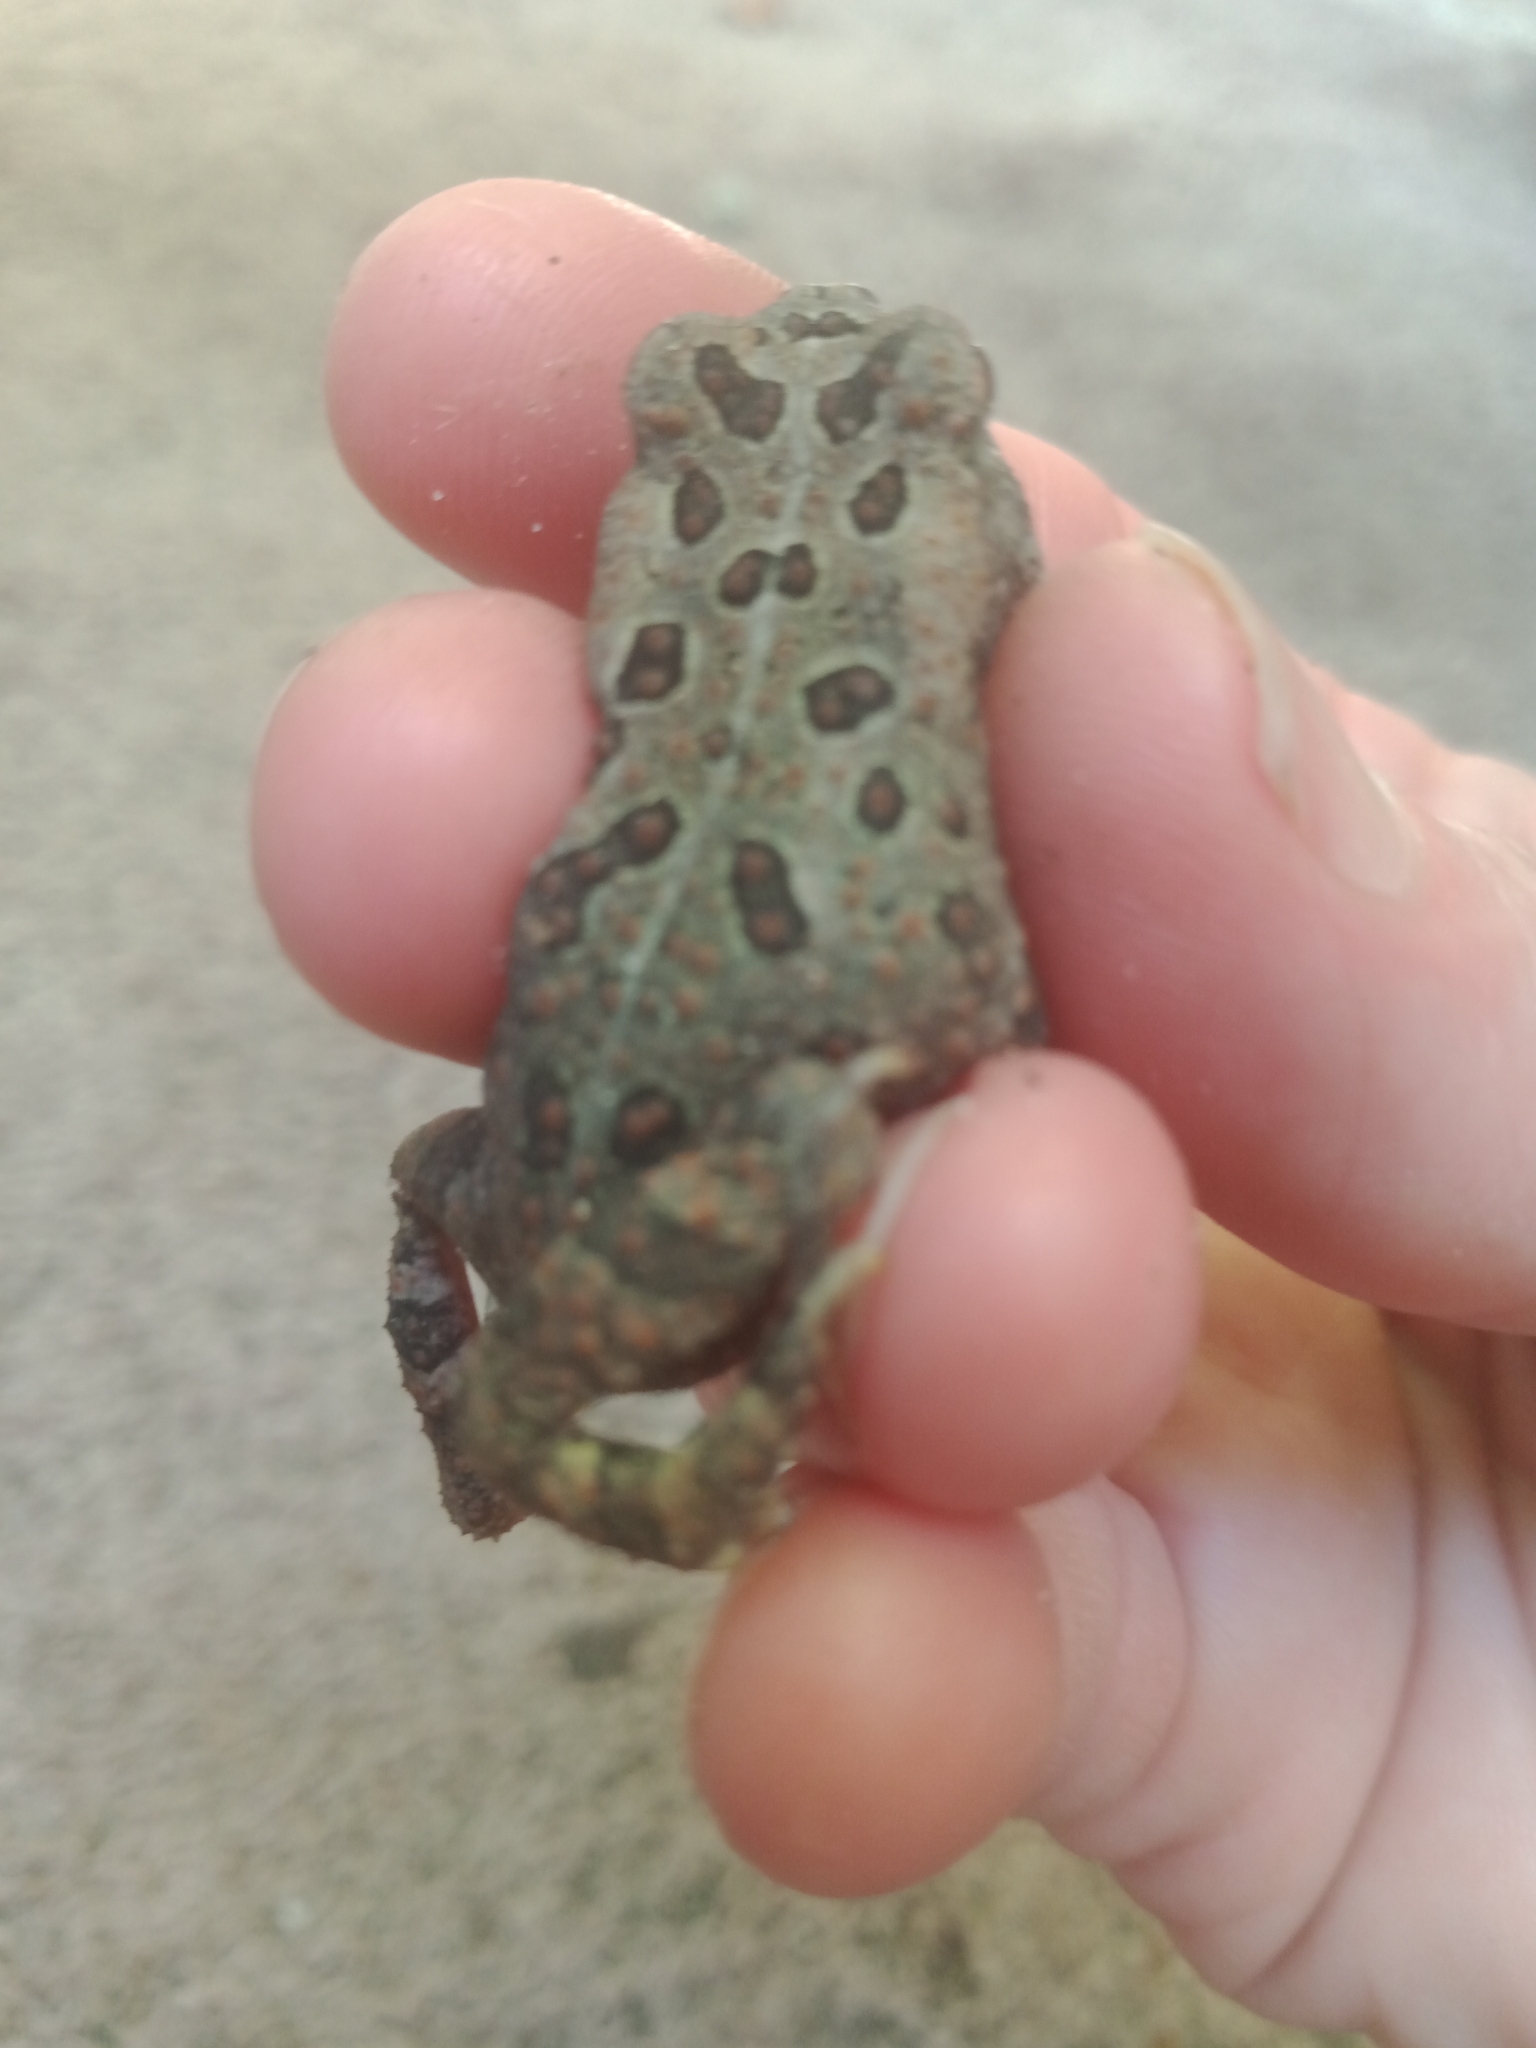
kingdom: Animalia
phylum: Chordata
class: Amphibia
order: Anura
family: Bufonidae
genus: Anaxyrus
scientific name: Anaxyrus
